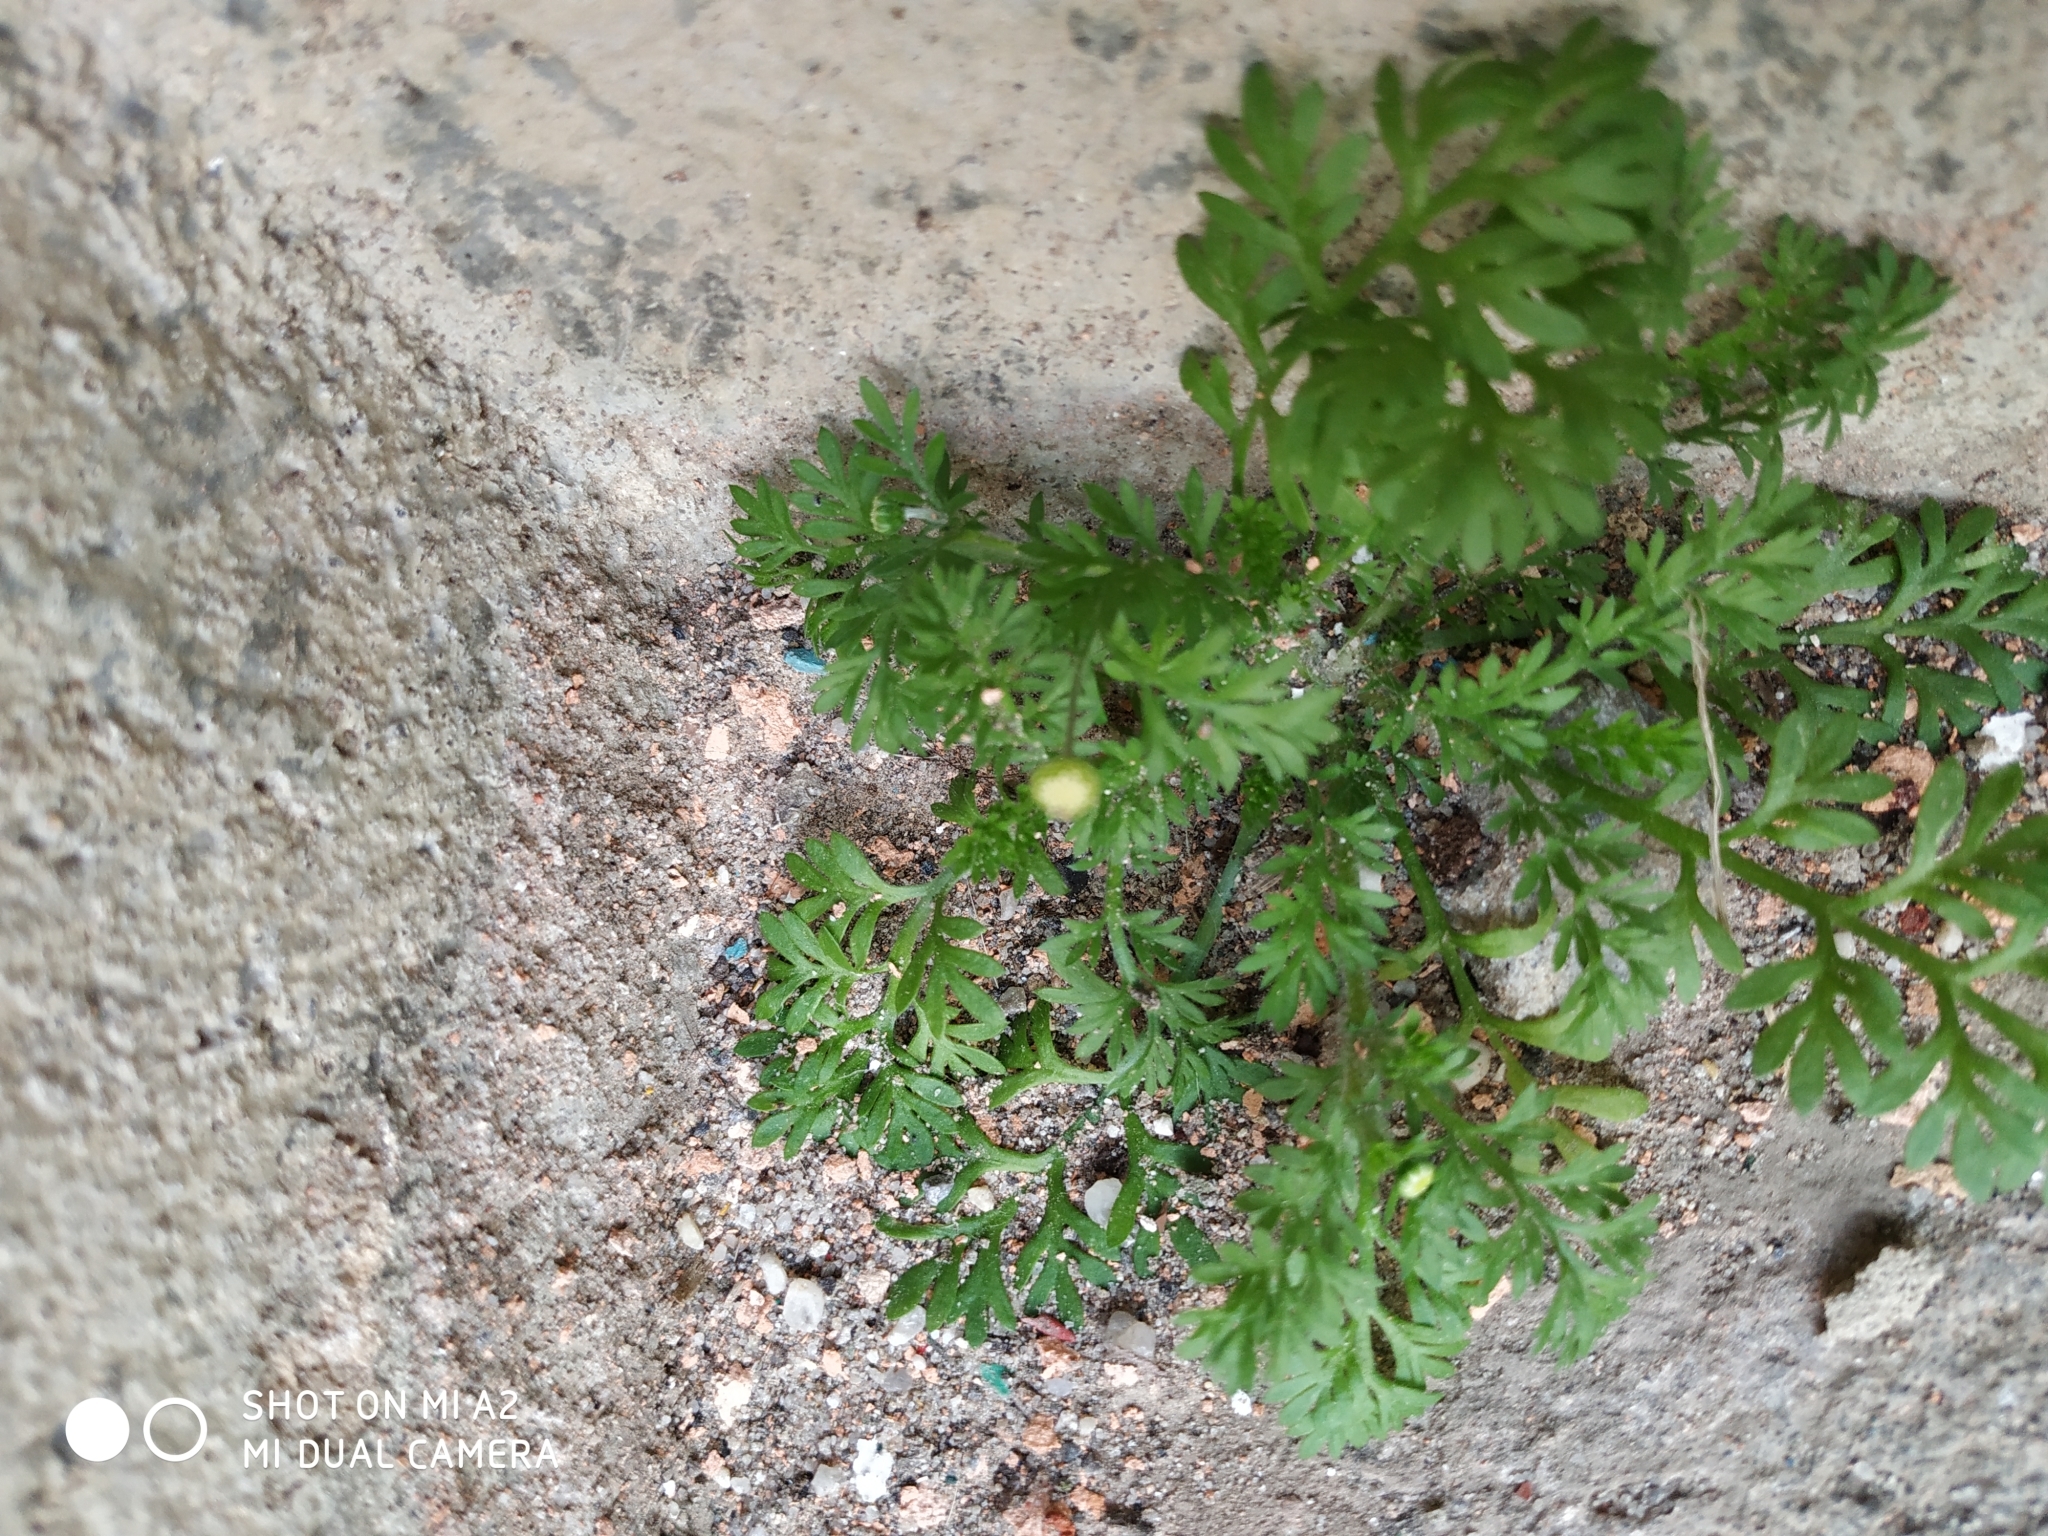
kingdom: Plantae
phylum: Tracheophyta
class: Magnoliopsida
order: Asterales
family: Asteraceae
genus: Cotula
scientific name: Cotula australis
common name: Australian waterbuttons
